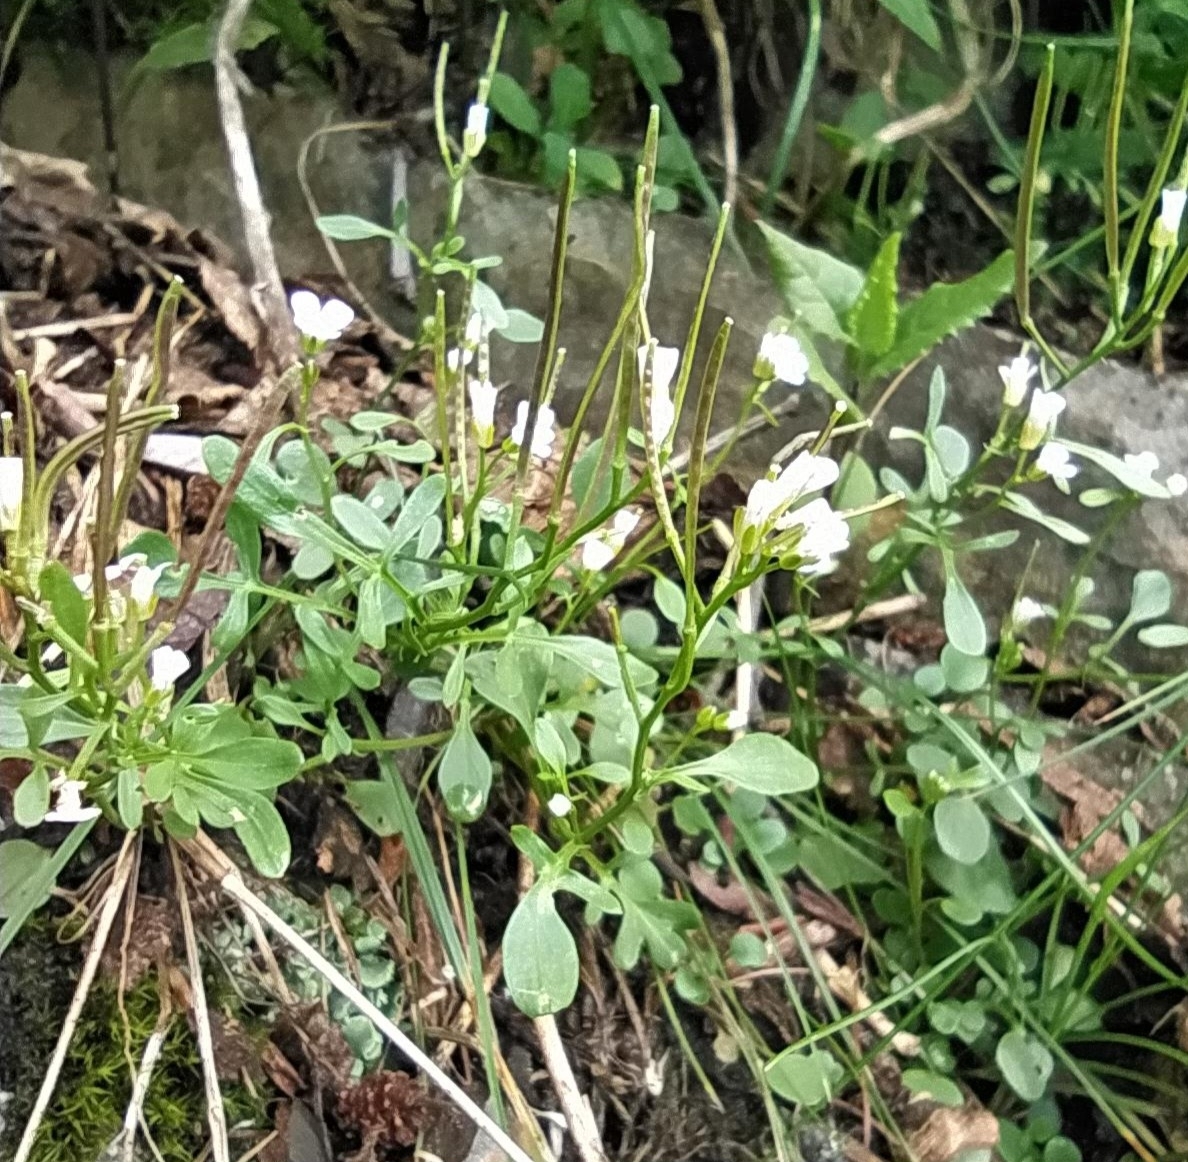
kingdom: Plantae
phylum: Tracheophyta
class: Magnoliopsida
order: Brassicales
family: Brassicaceae
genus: Cardamine
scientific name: Cardamine resedifolia
